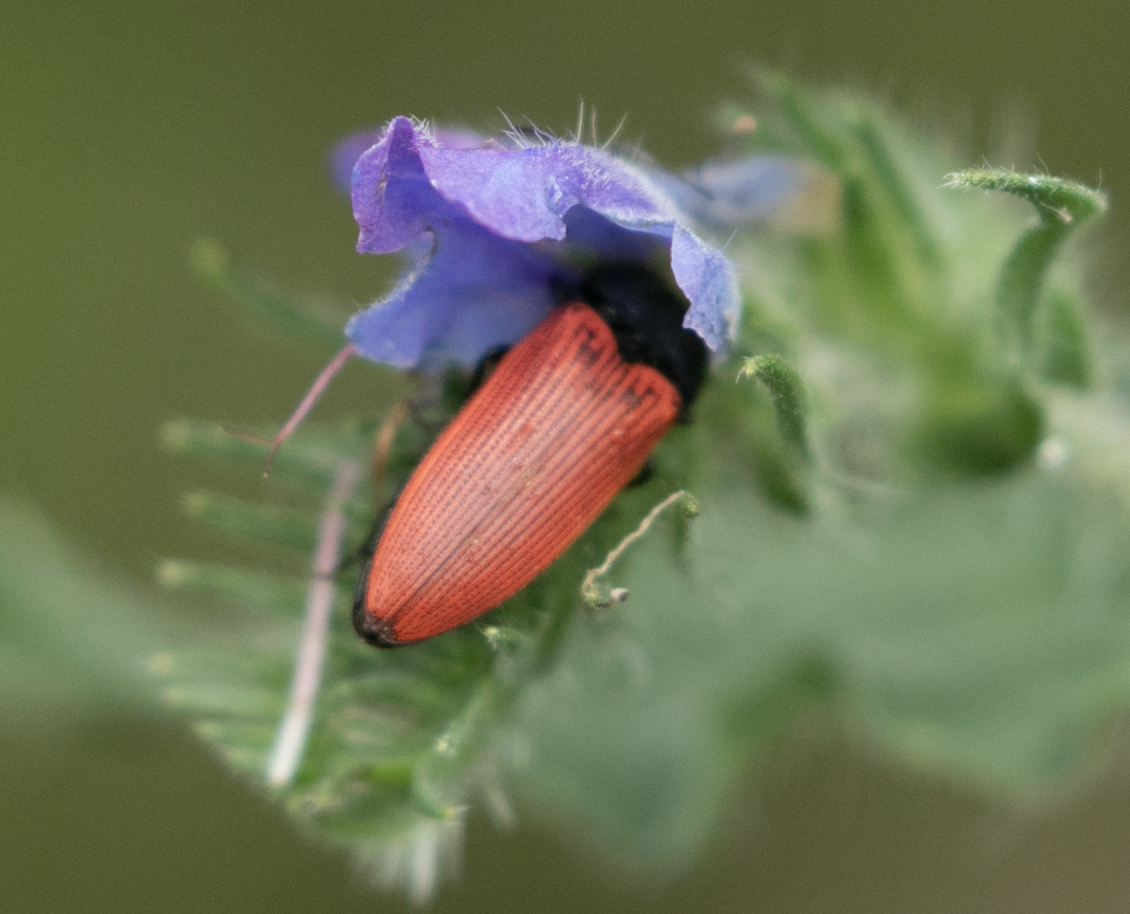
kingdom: Animalia
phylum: Arthropoda
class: Insecta
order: Coleoptera
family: Elateridae
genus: Ampedus
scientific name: Ampedus sanguineus
